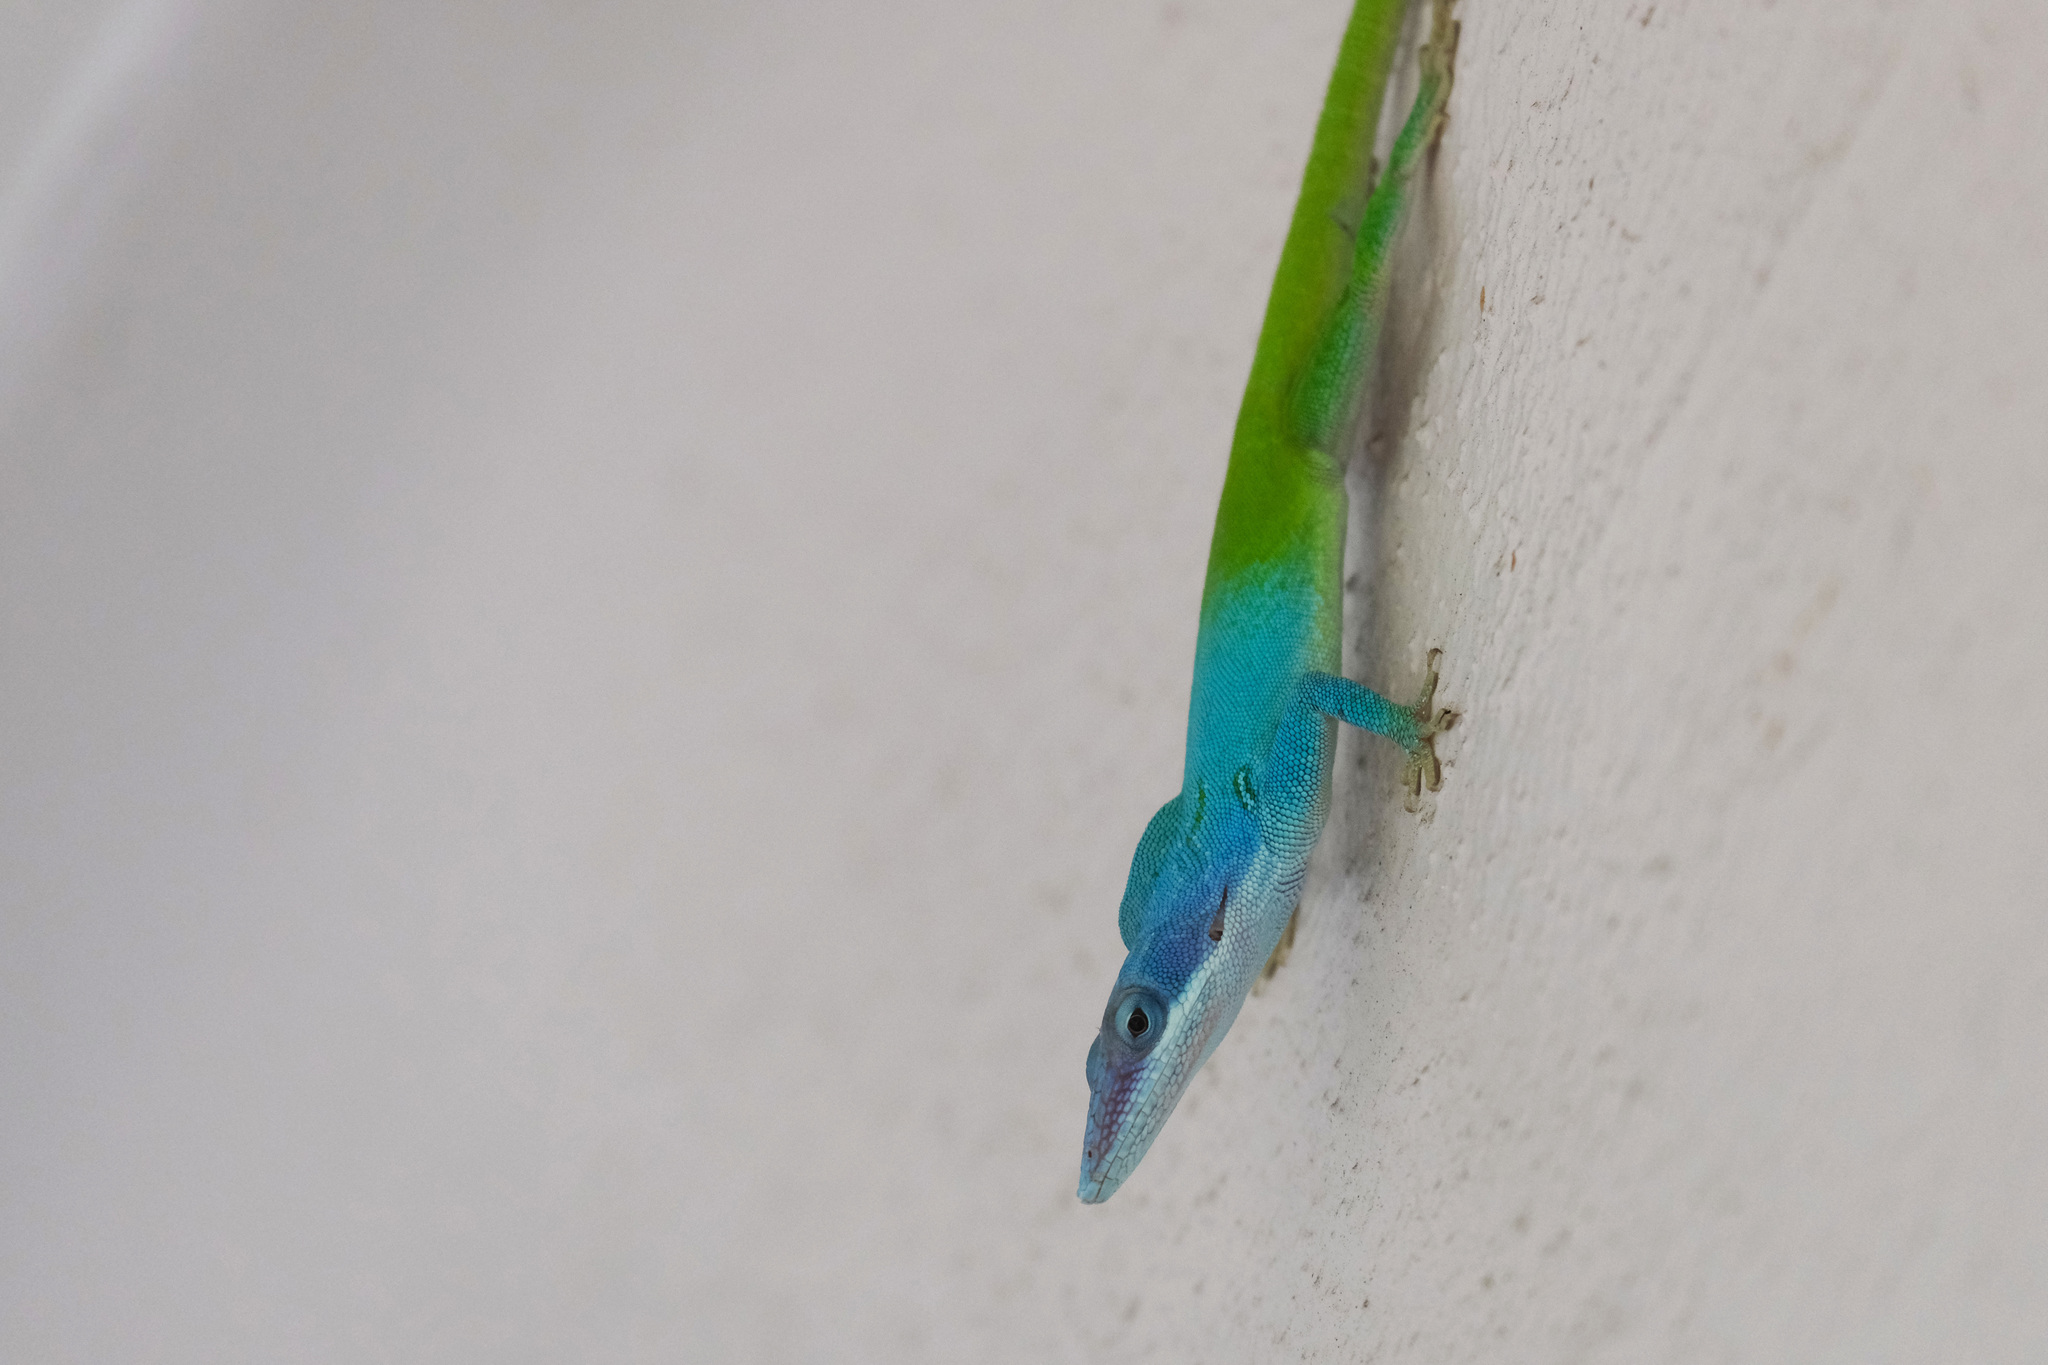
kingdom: Animalia
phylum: Chordata
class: Squamata
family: Dactyloidae
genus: Anolis
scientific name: Anolis allisoni
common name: Allison's anole
